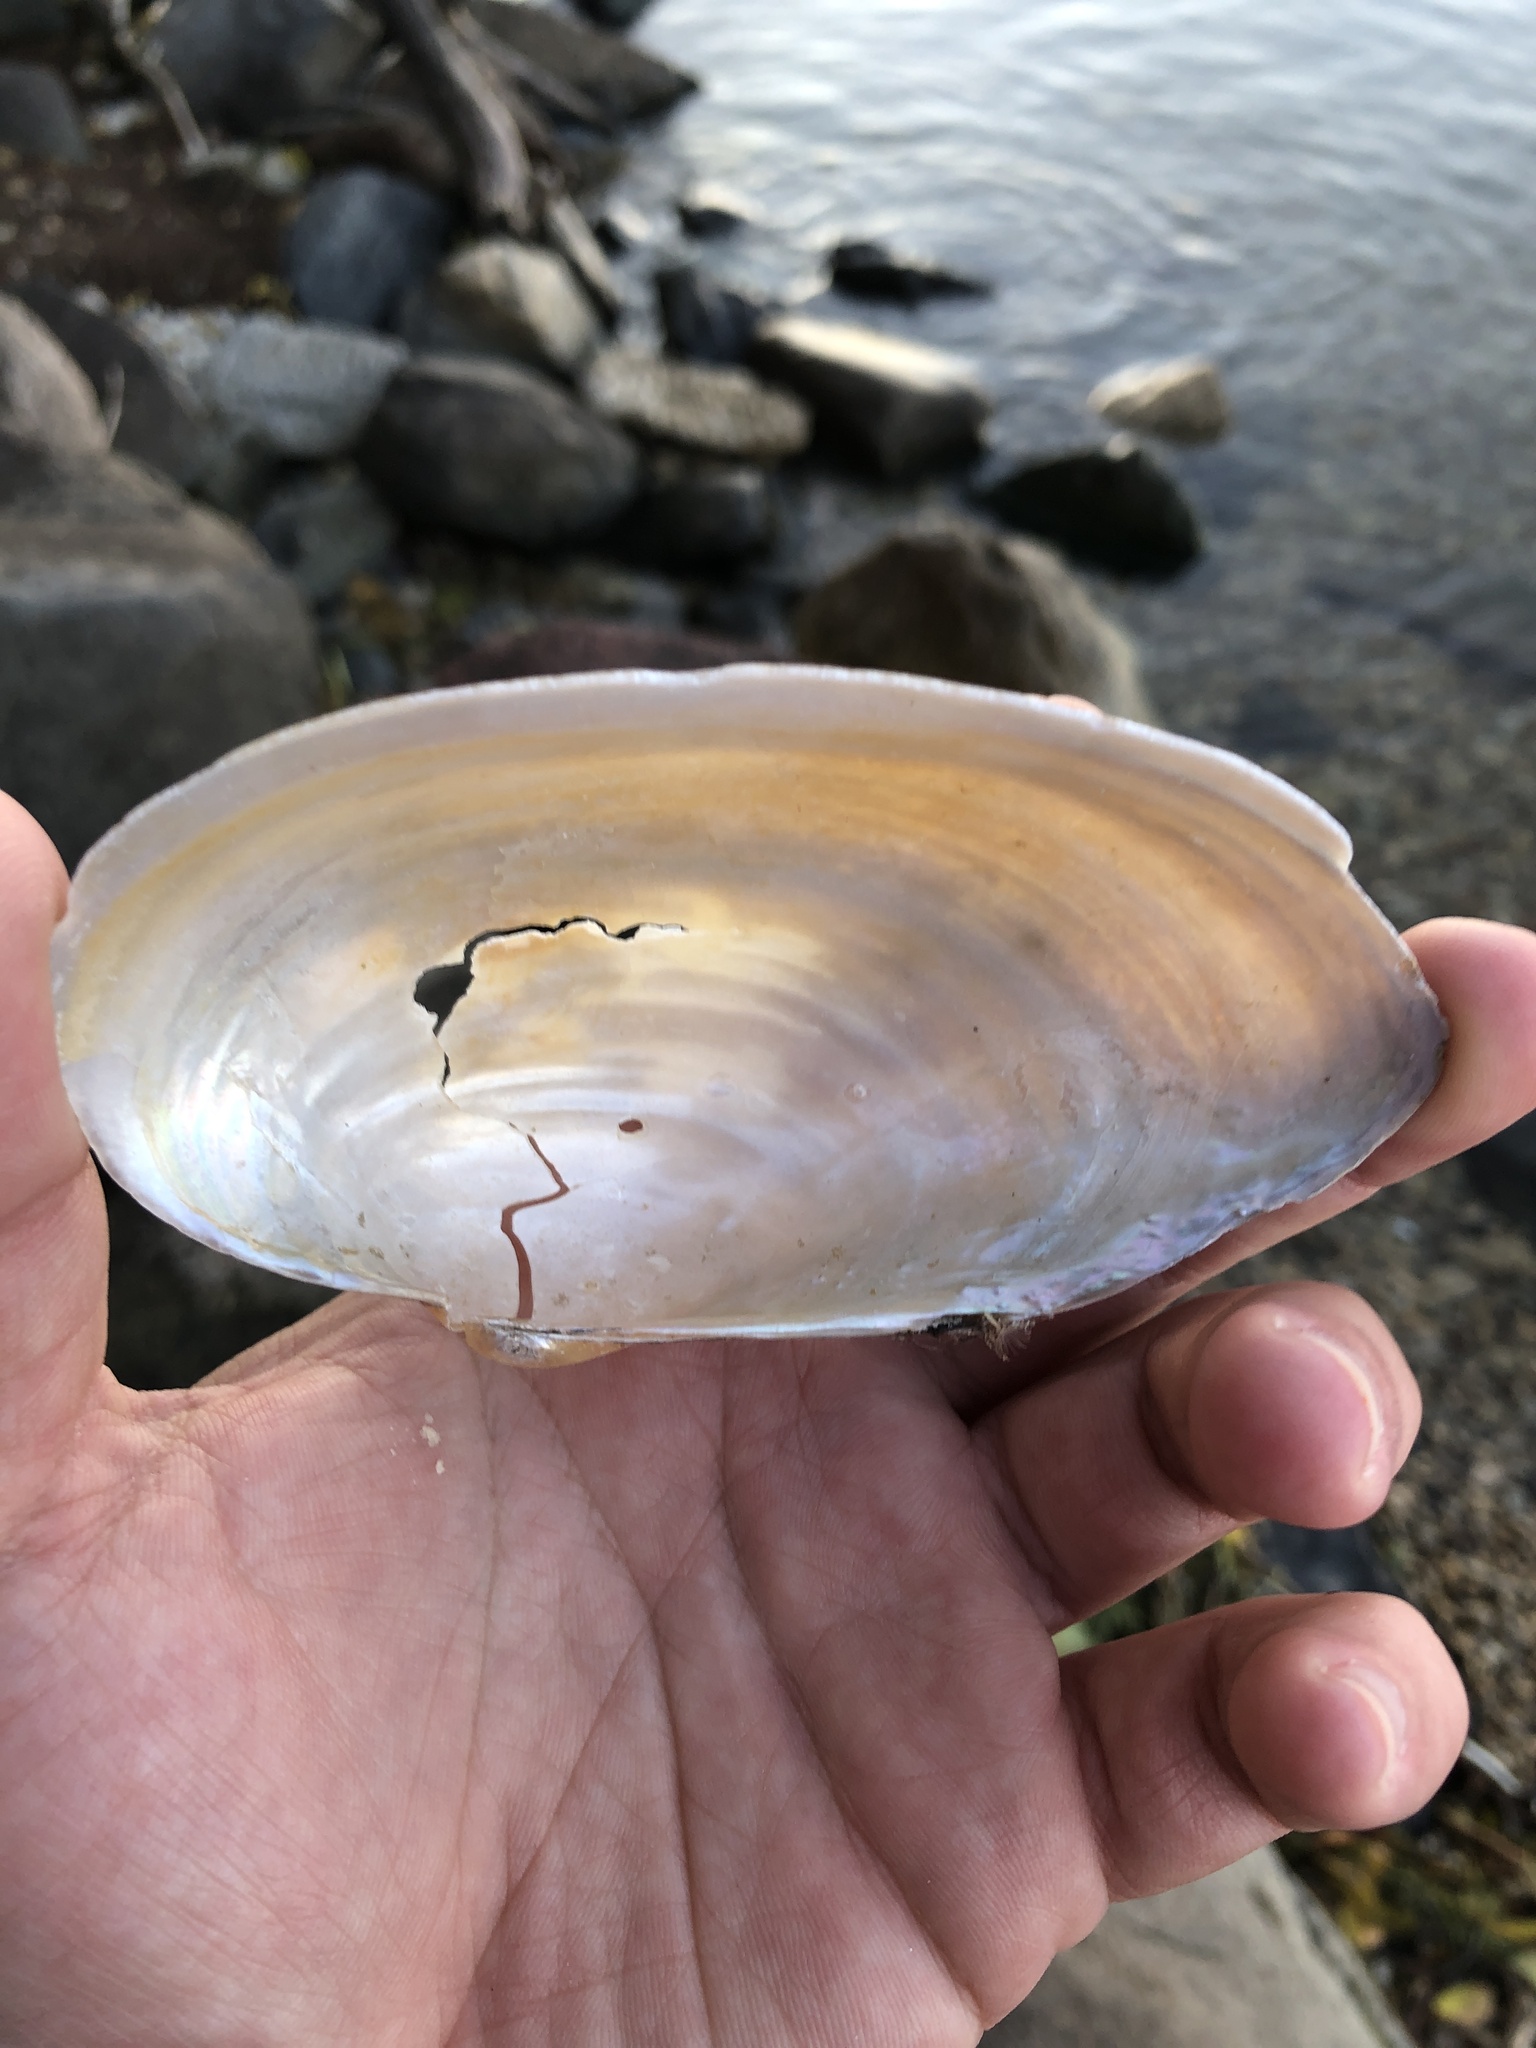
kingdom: Animalia
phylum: Mollusca
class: Bivalvia
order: Unionida
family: Unionidae
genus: Pyganodon
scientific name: Pyganodon grandis
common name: Giant floater
